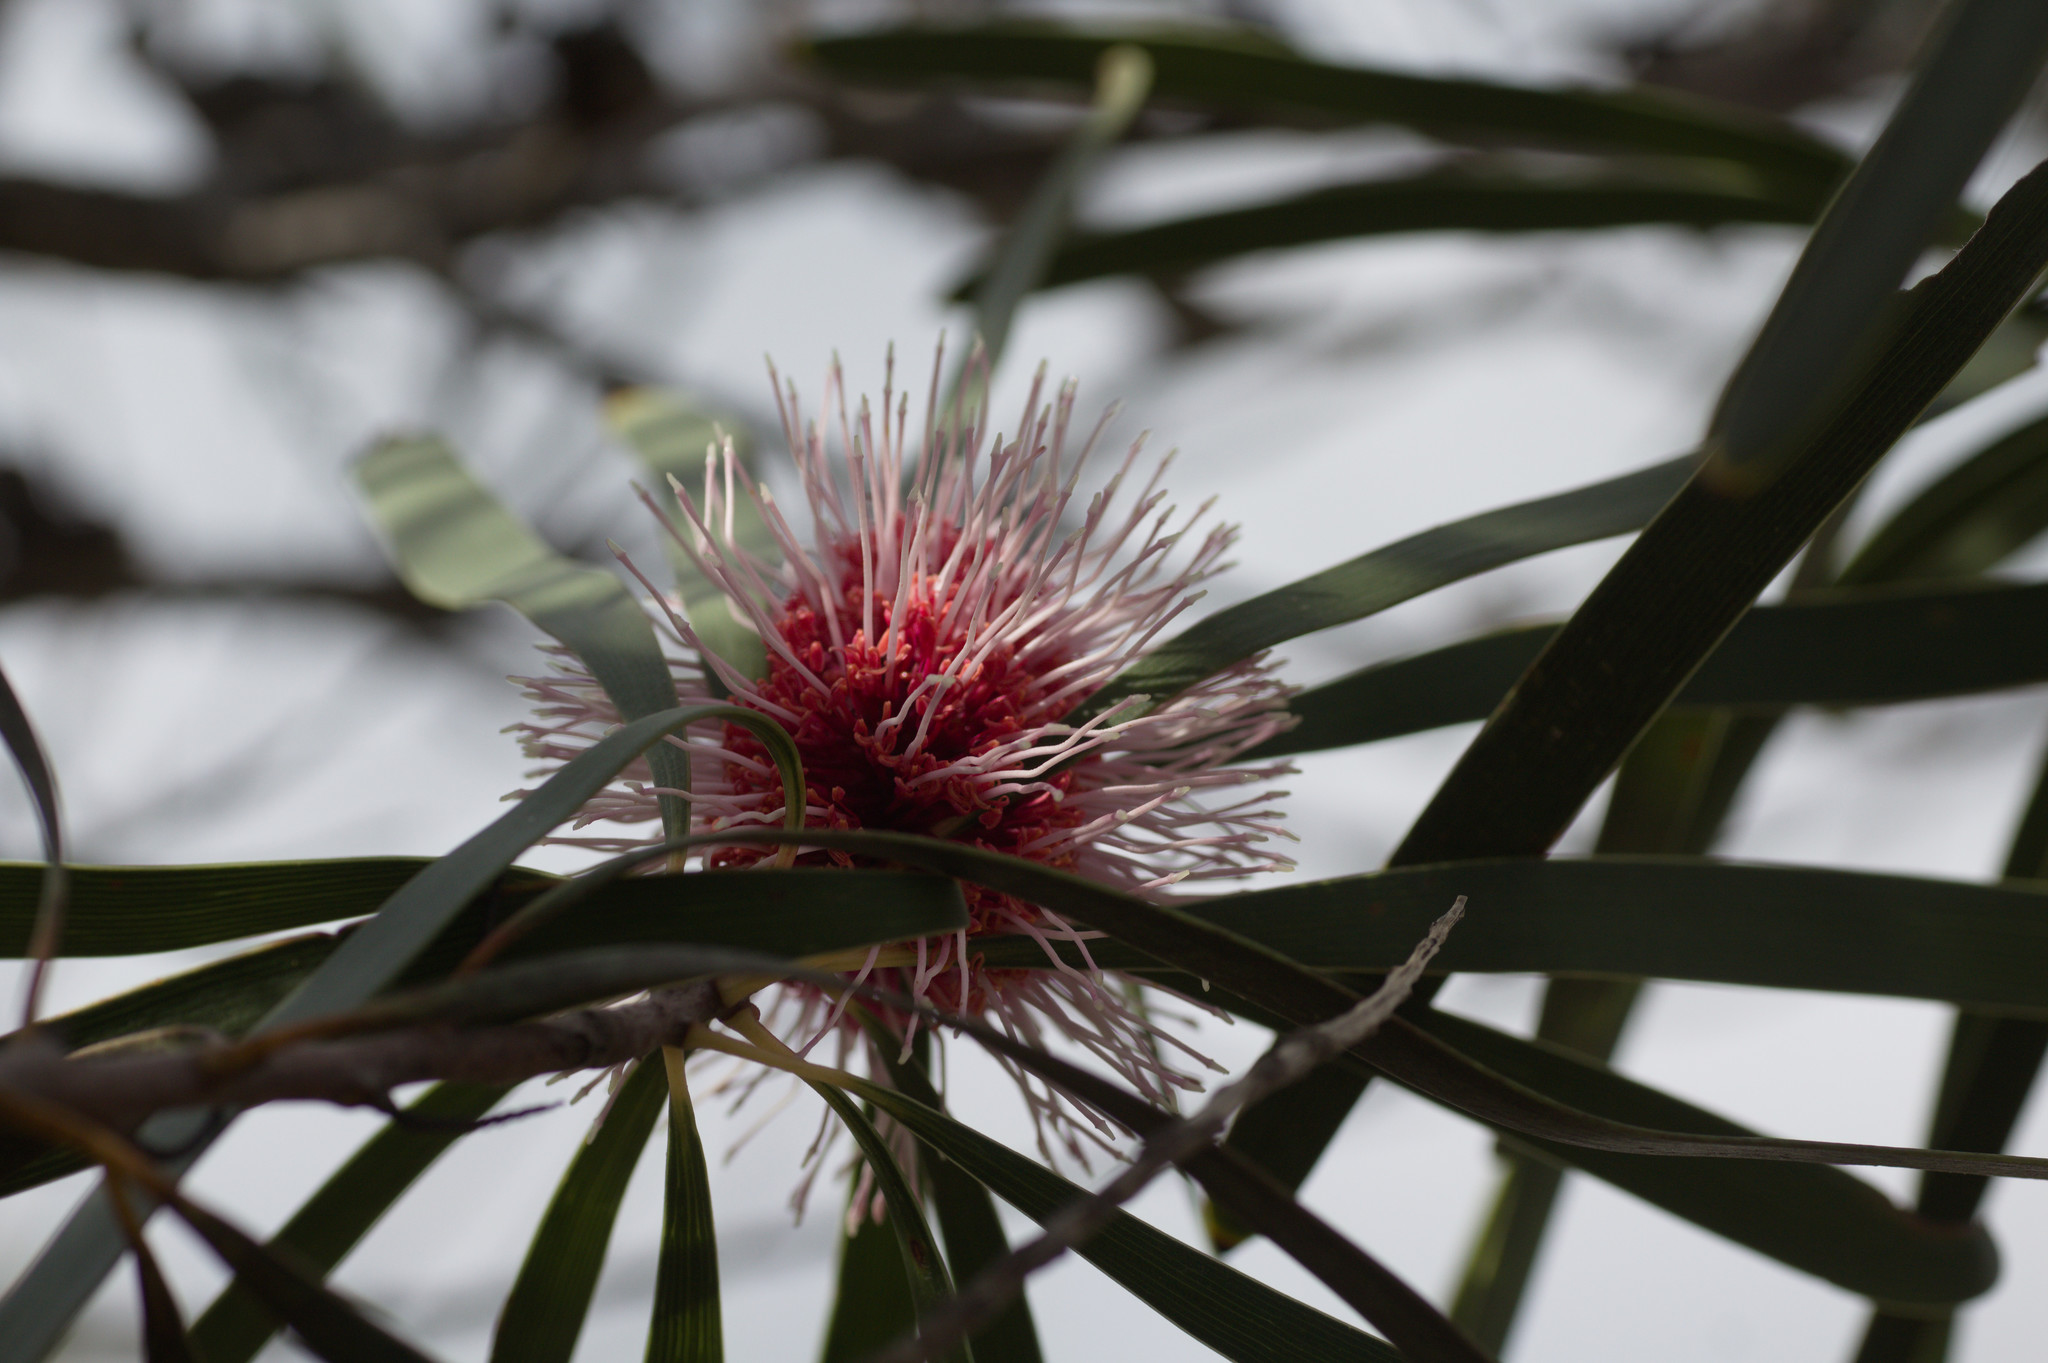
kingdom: Plantae
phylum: Tracheophyta
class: Magnoliopsida
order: Proteales
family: Proteaceae
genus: Hakea
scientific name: Hakea laurina
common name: Cushion hakea
